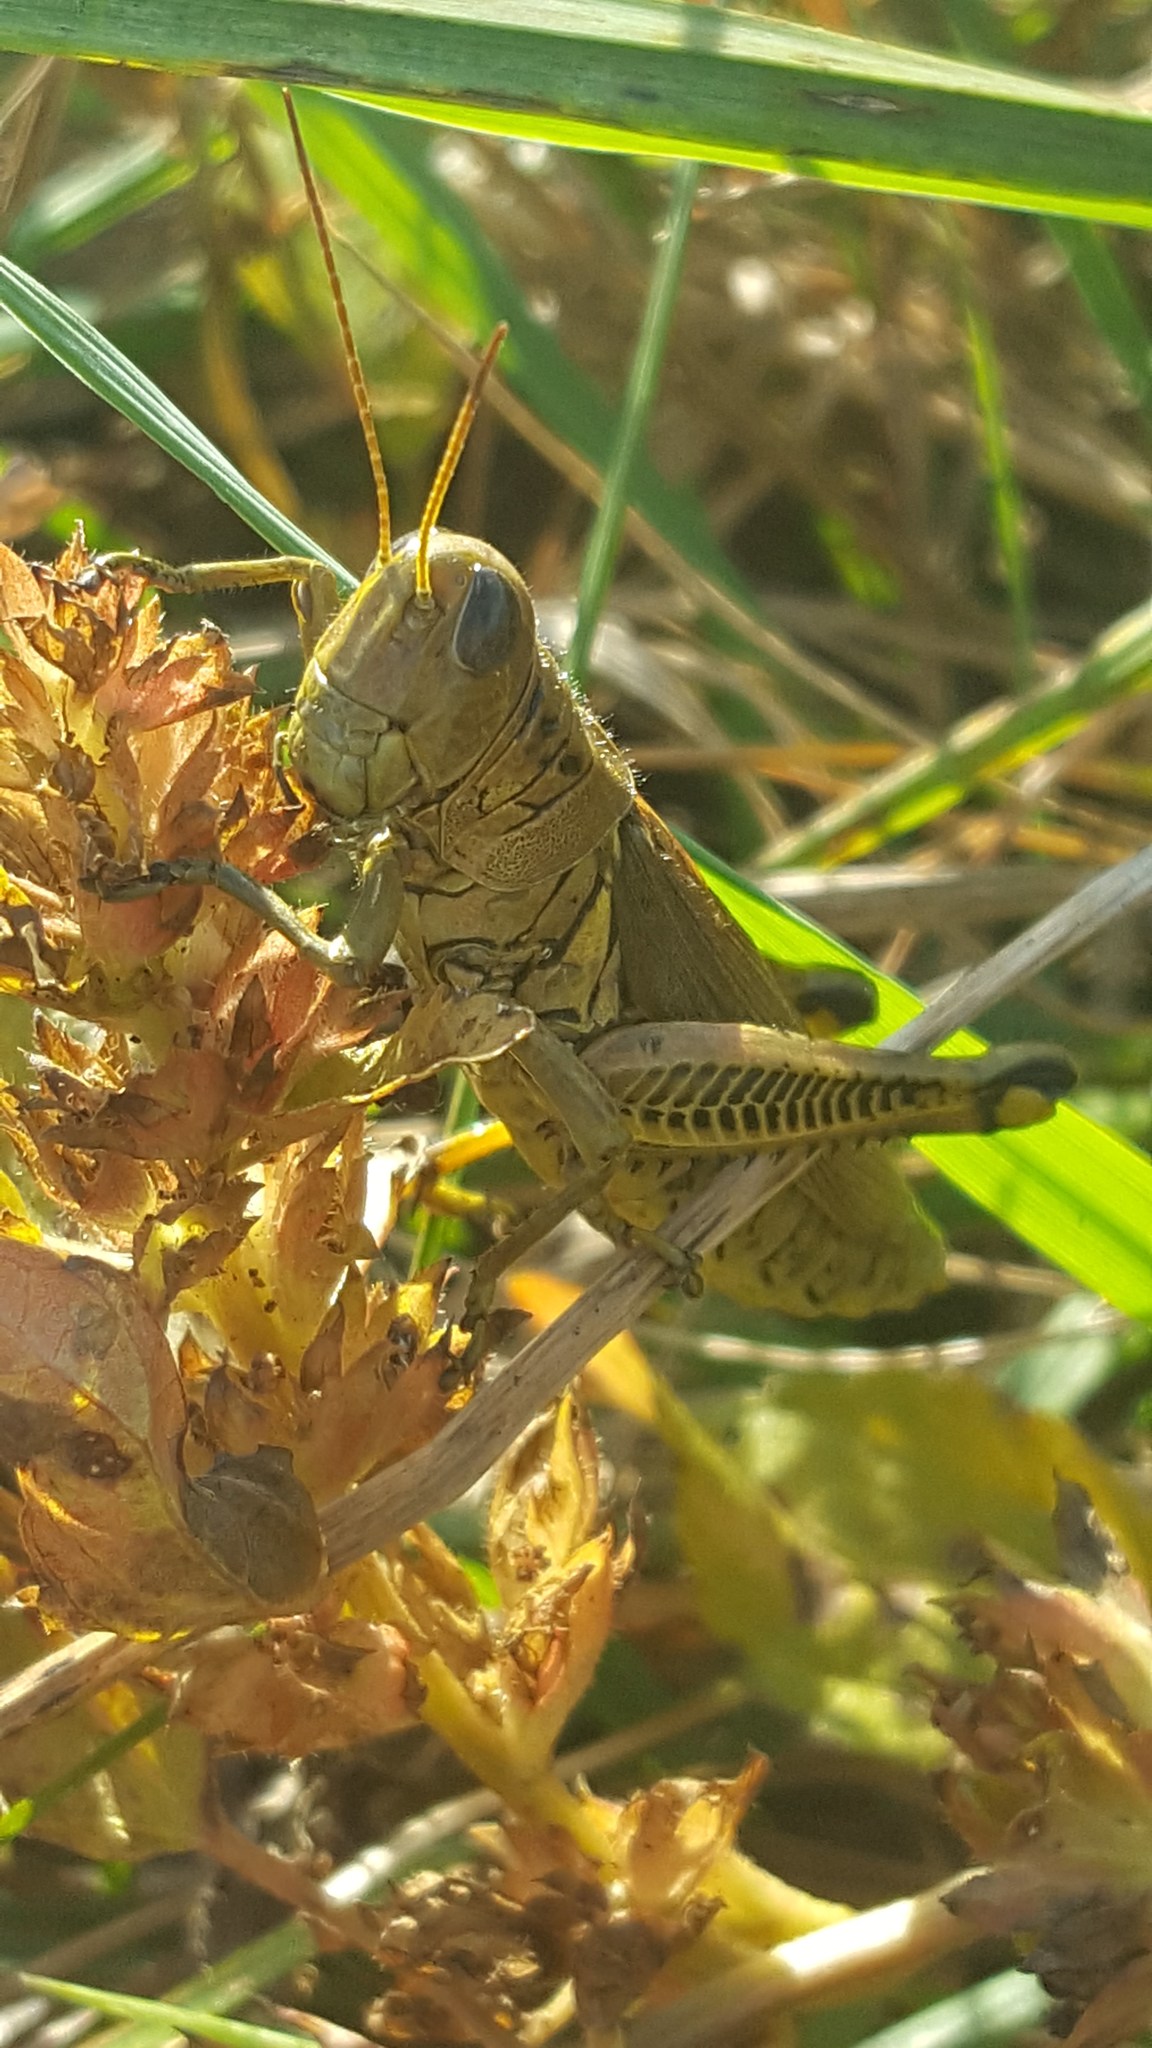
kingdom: Animalia
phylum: Arthropoda
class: Insecta
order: Orthoptera
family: Acrididae
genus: Melanoplus
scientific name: Melanoplus differentialis
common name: Differential grasshopper
